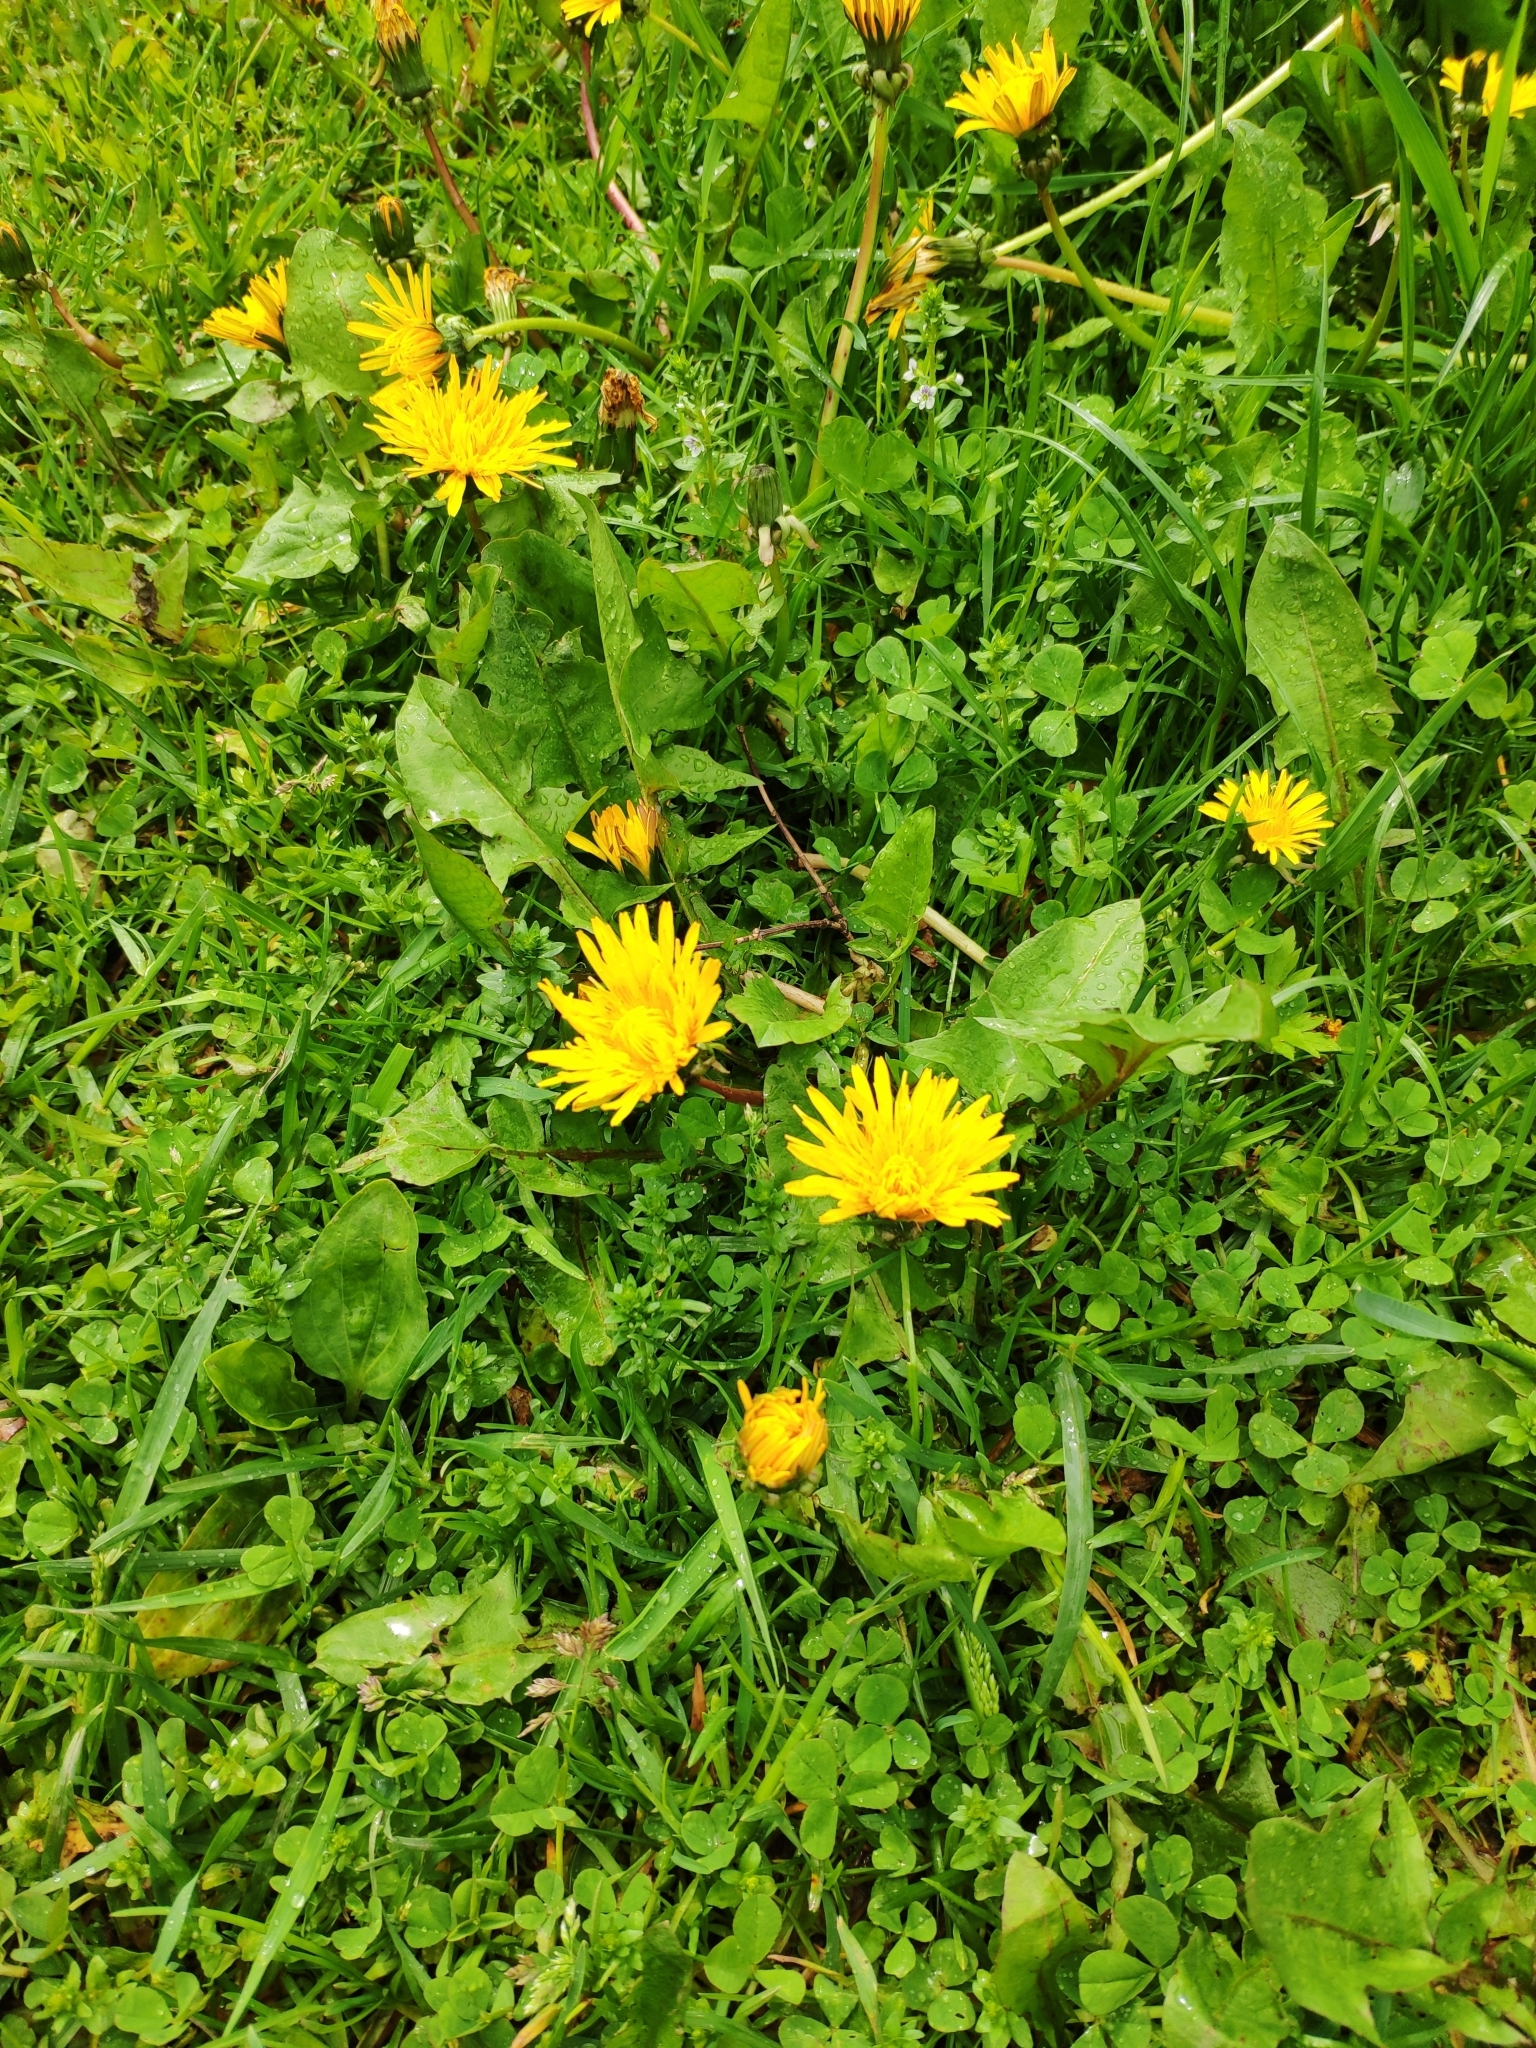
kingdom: Plantae
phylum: Tracheophyta
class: Magnoliopsida
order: Asterales
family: Asteraceae
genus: Taraxacum
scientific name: Taraxacum officinale
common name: Common dandelion
